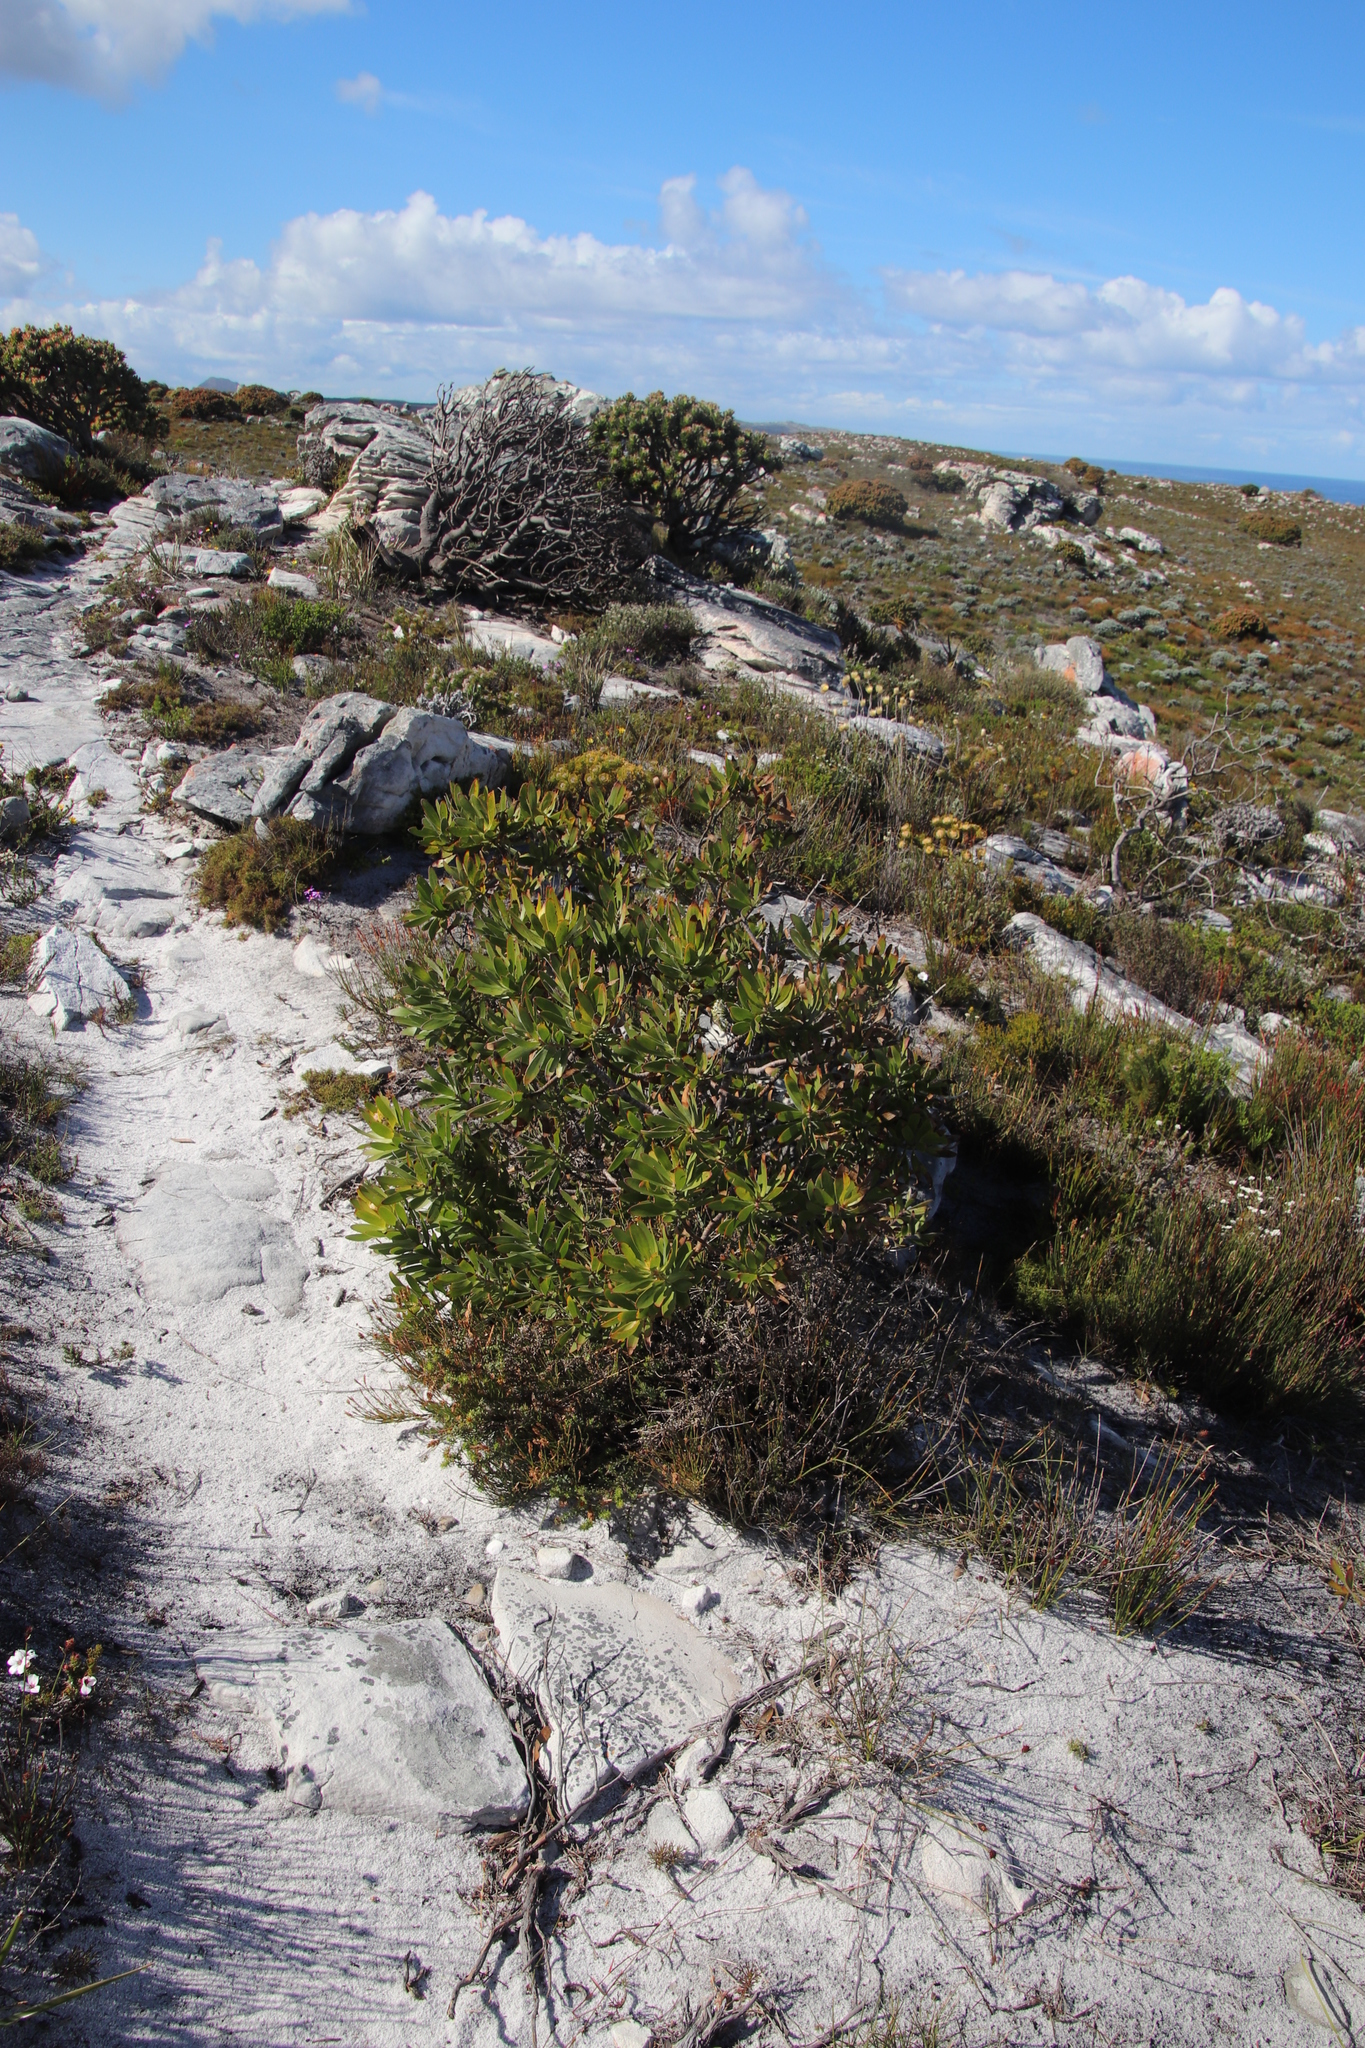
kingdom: Plantae
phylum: Tracheophyta
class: Magnoliopsida
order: Proteales
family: Proteaceae
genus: Leucadendron
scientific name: Leucadendron laureolum
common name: Golden sunshinebush
